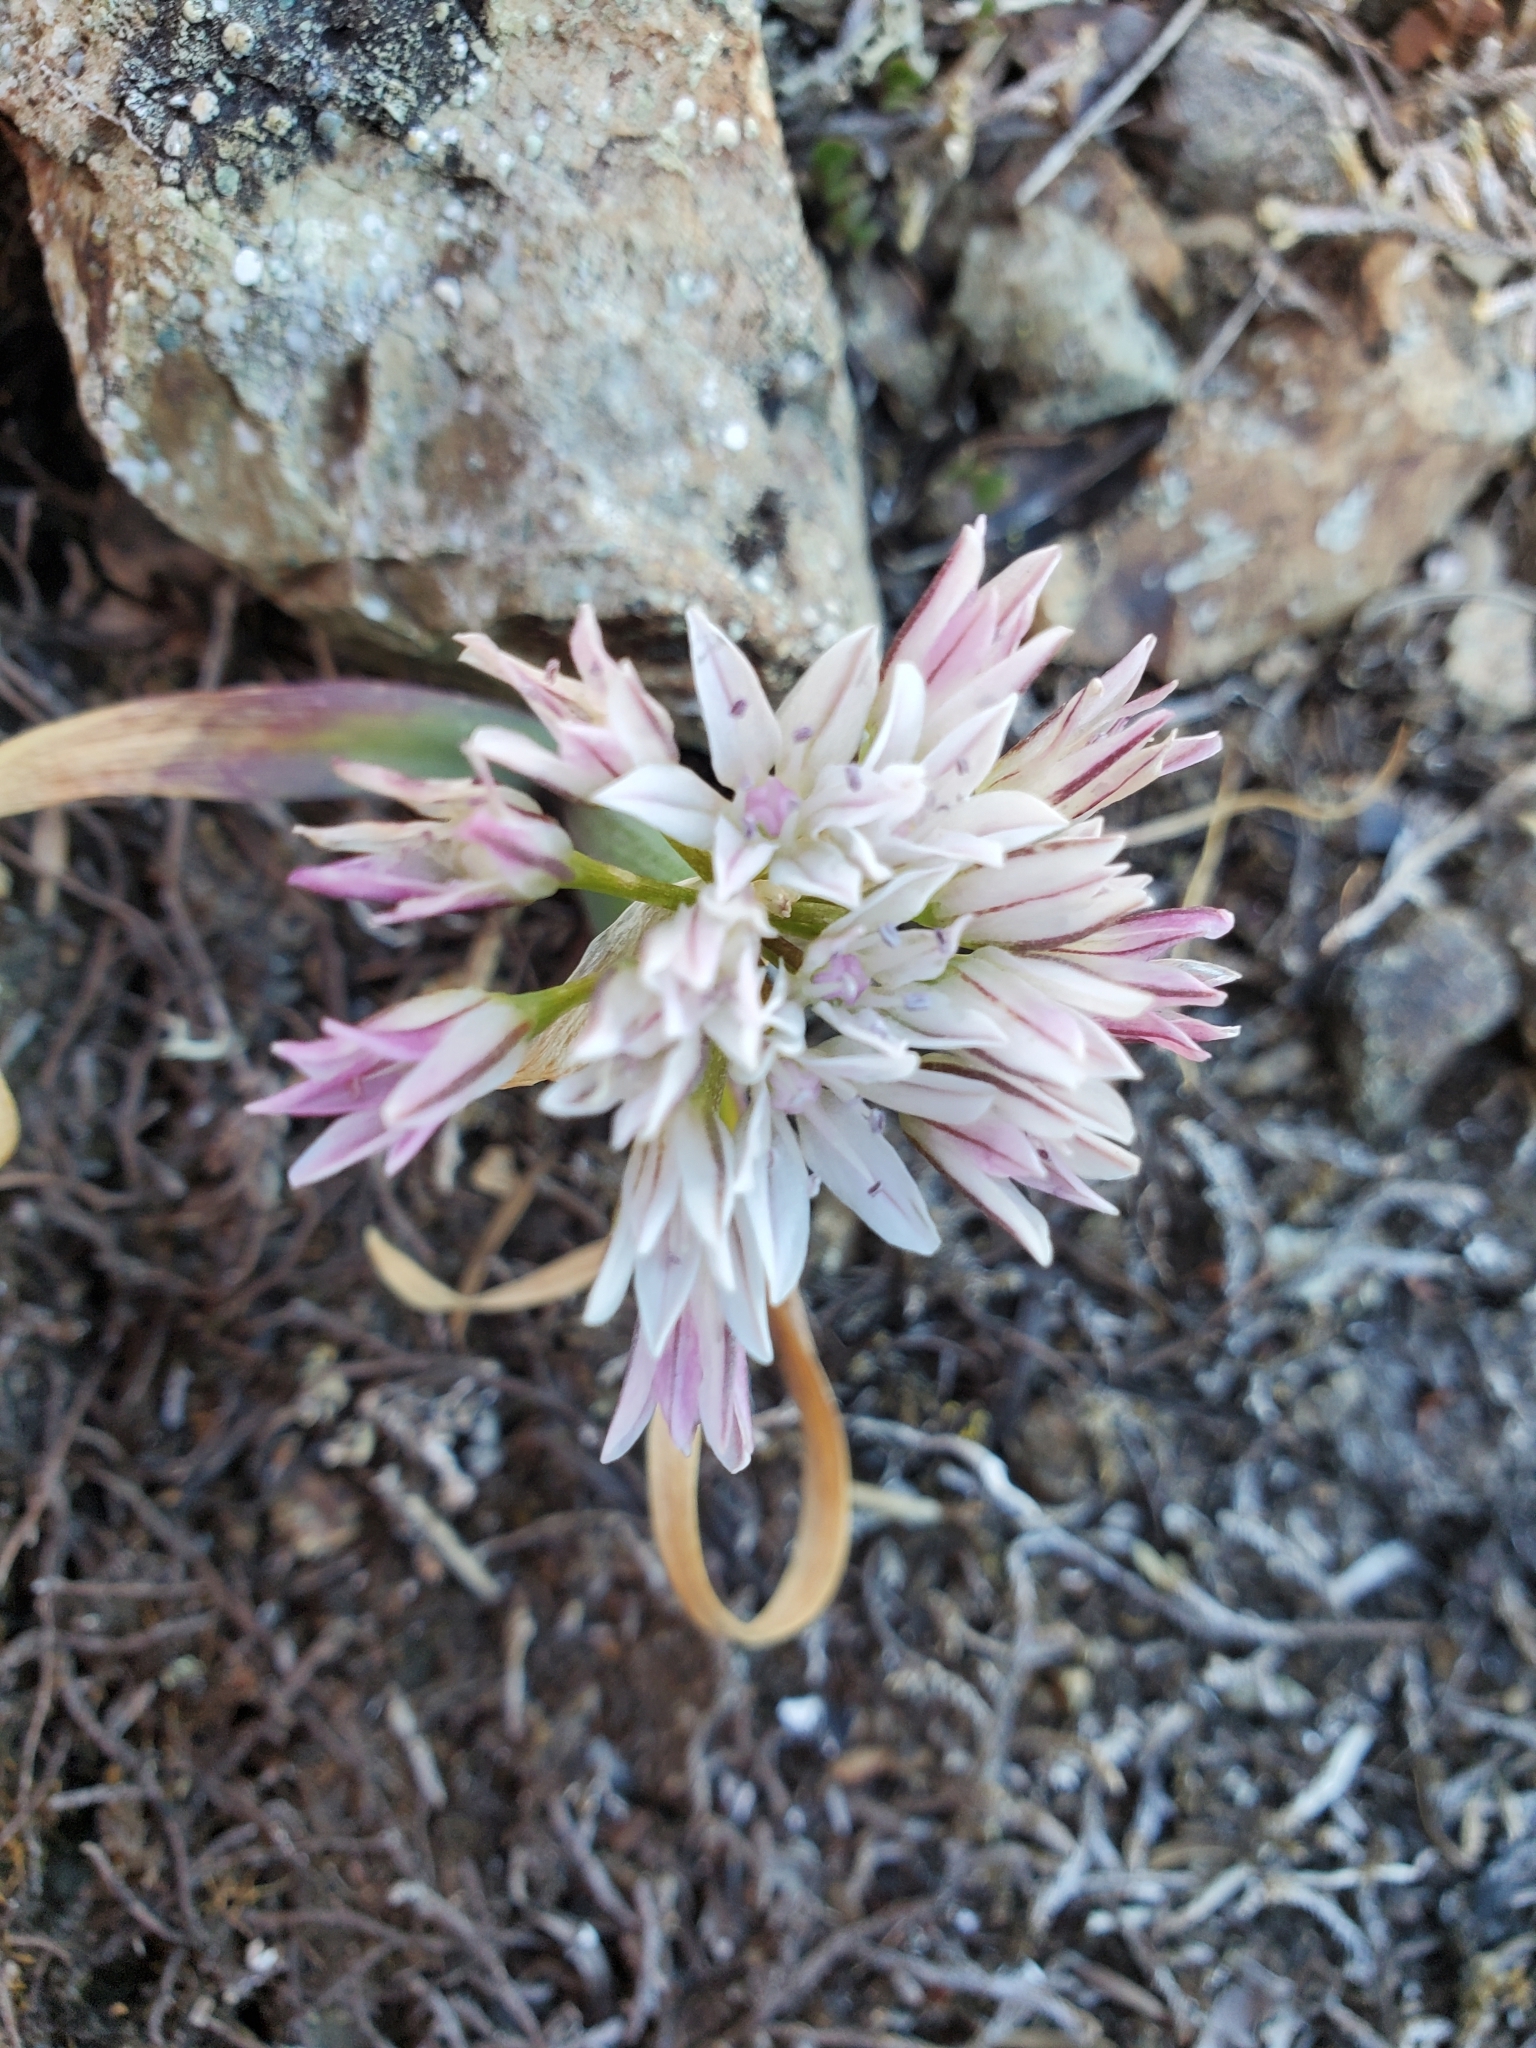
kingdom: Plantae
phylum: Tracheophyta
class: Liliopsida
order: Asparagales
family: Amaryllidaceae
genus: Allium
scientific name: Allium crenulatum
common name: Olympic onion
